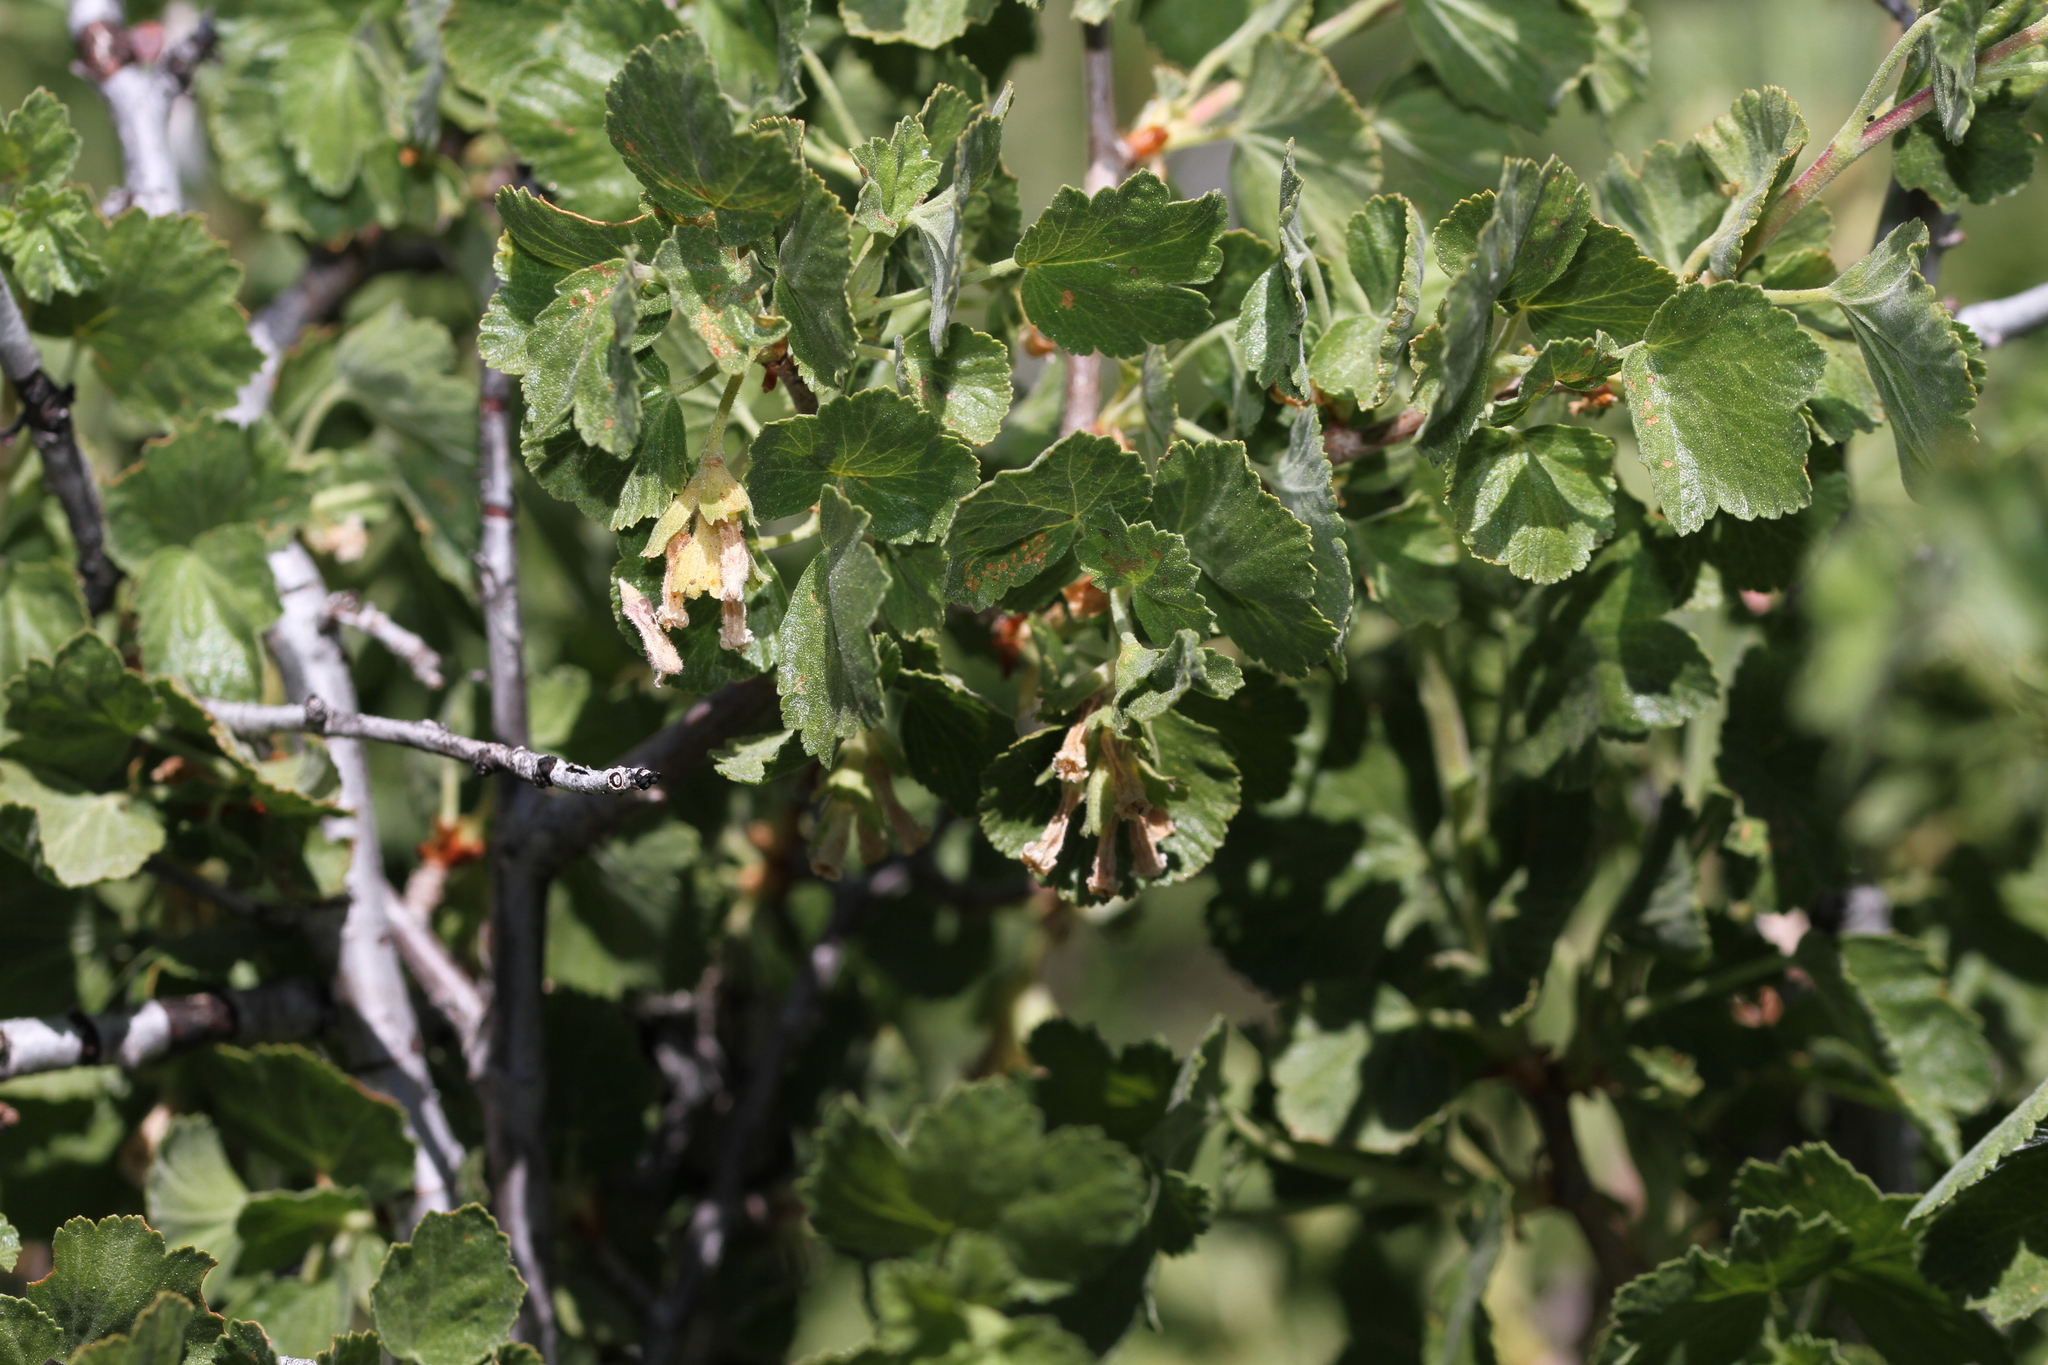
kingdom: Plantae
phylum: Tracheophyta
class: Magnoliopsida
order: Saxifragales
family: Grossulariaceae
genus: Ribes
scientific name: Ribes cereum
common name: Wax currant
